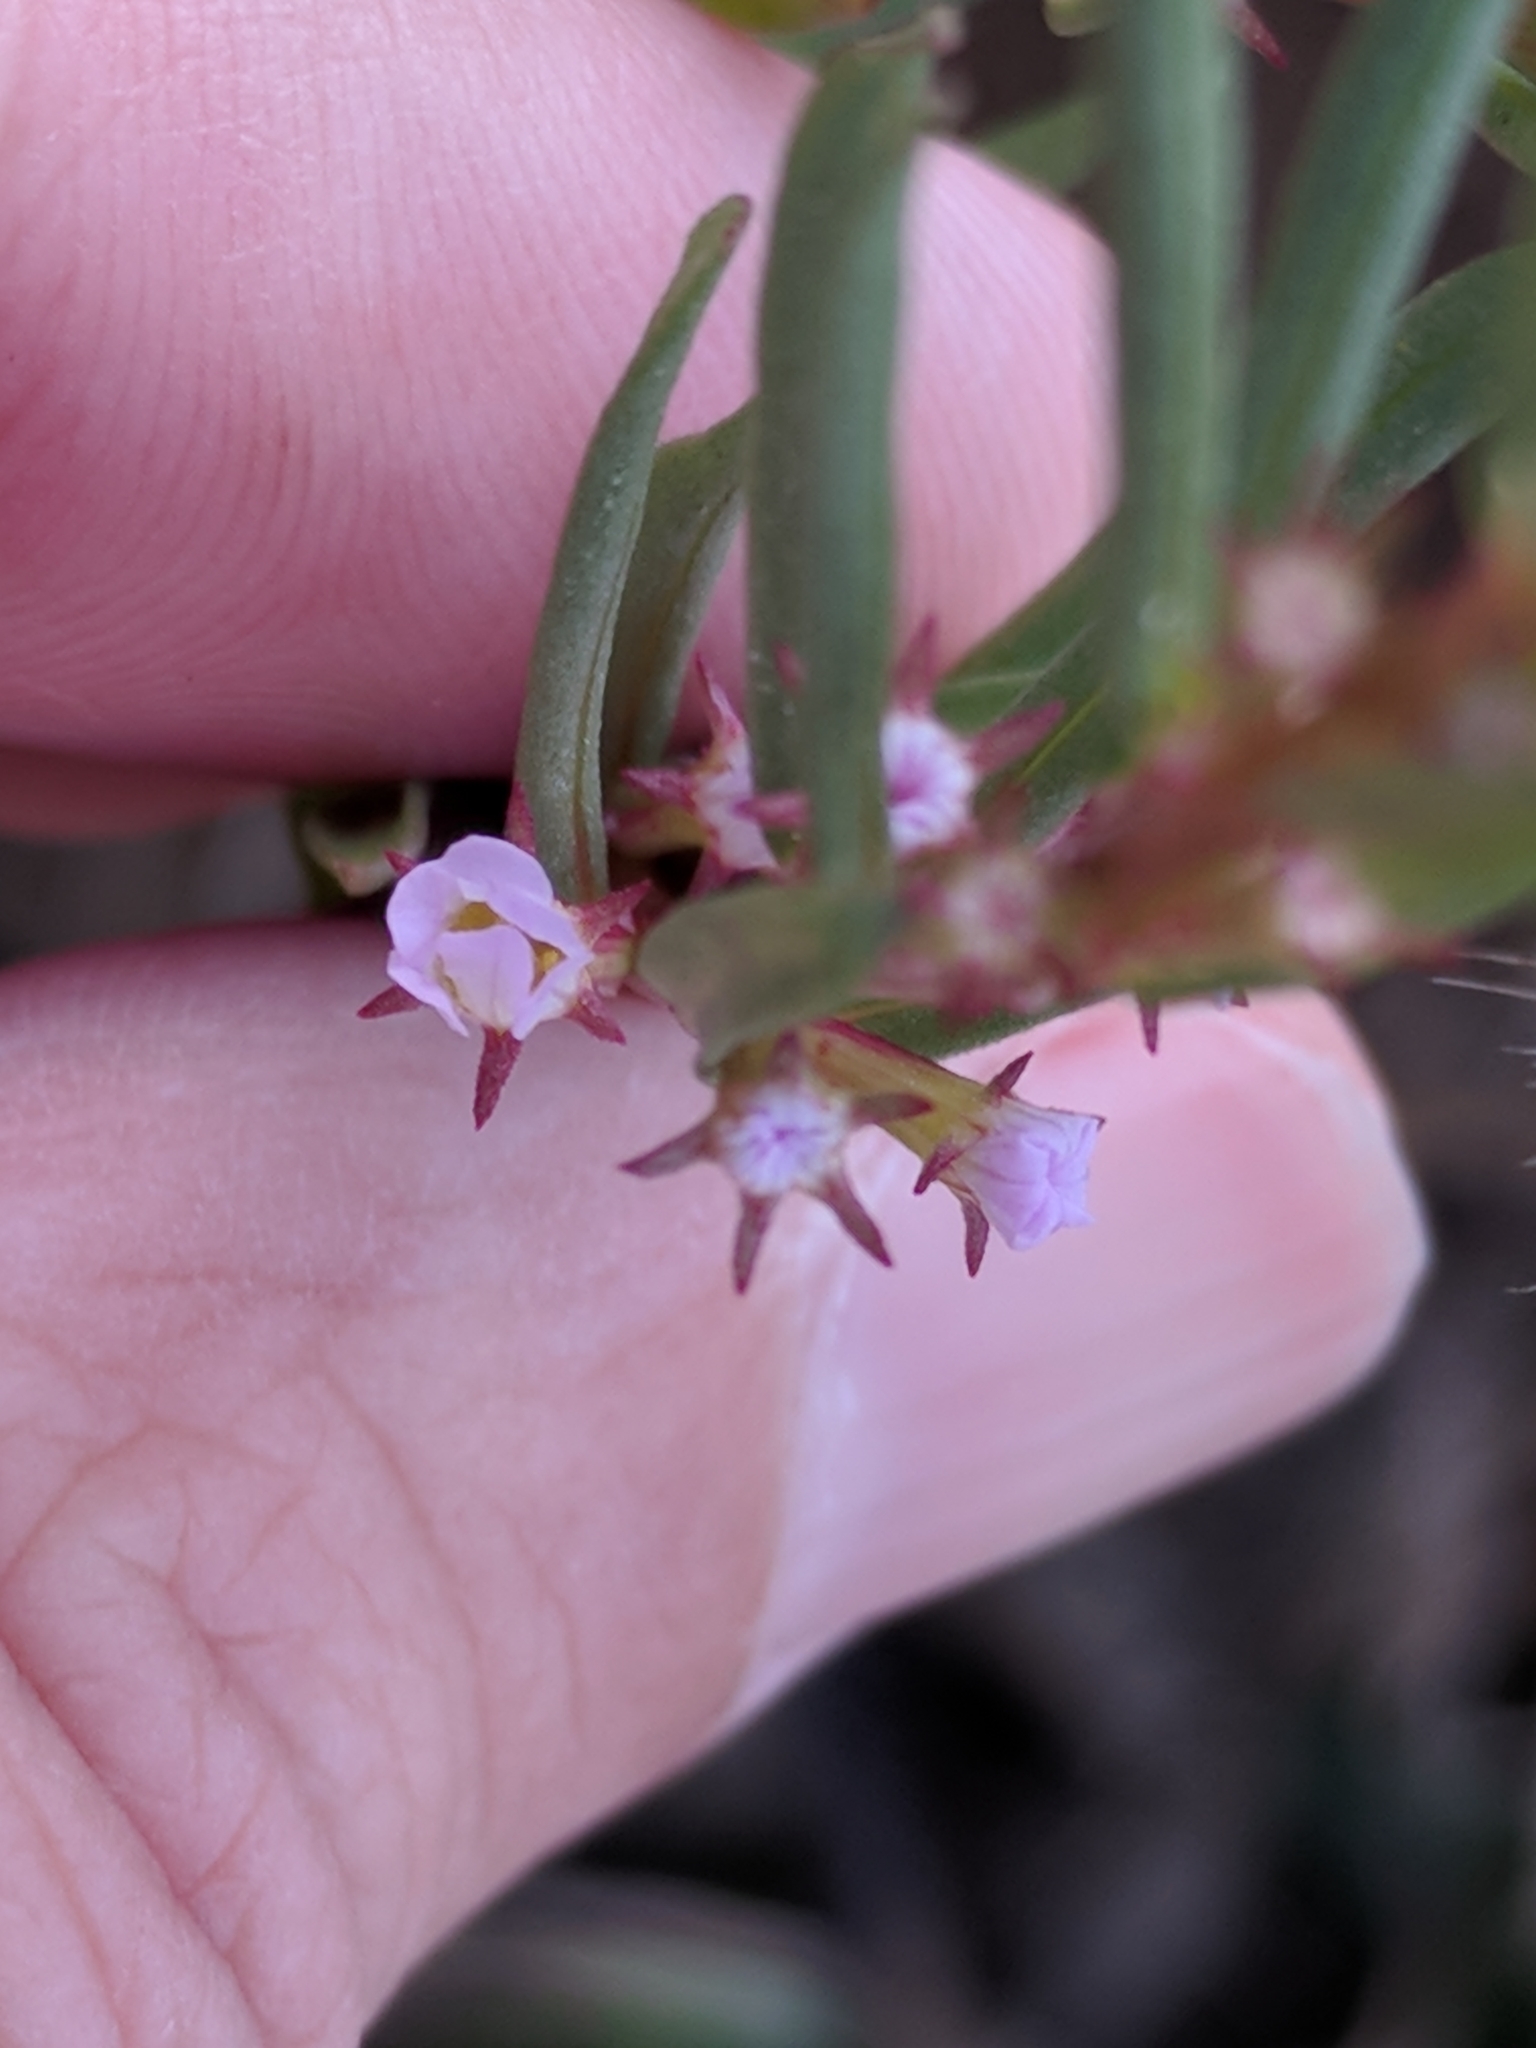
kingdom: Plantae
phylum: Tracheophyta
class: Magnoliopsida
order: Myrtales
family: Lythraceae
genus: Lythrum
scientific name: Lythrum hyssopifolia
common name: Grass-poly
